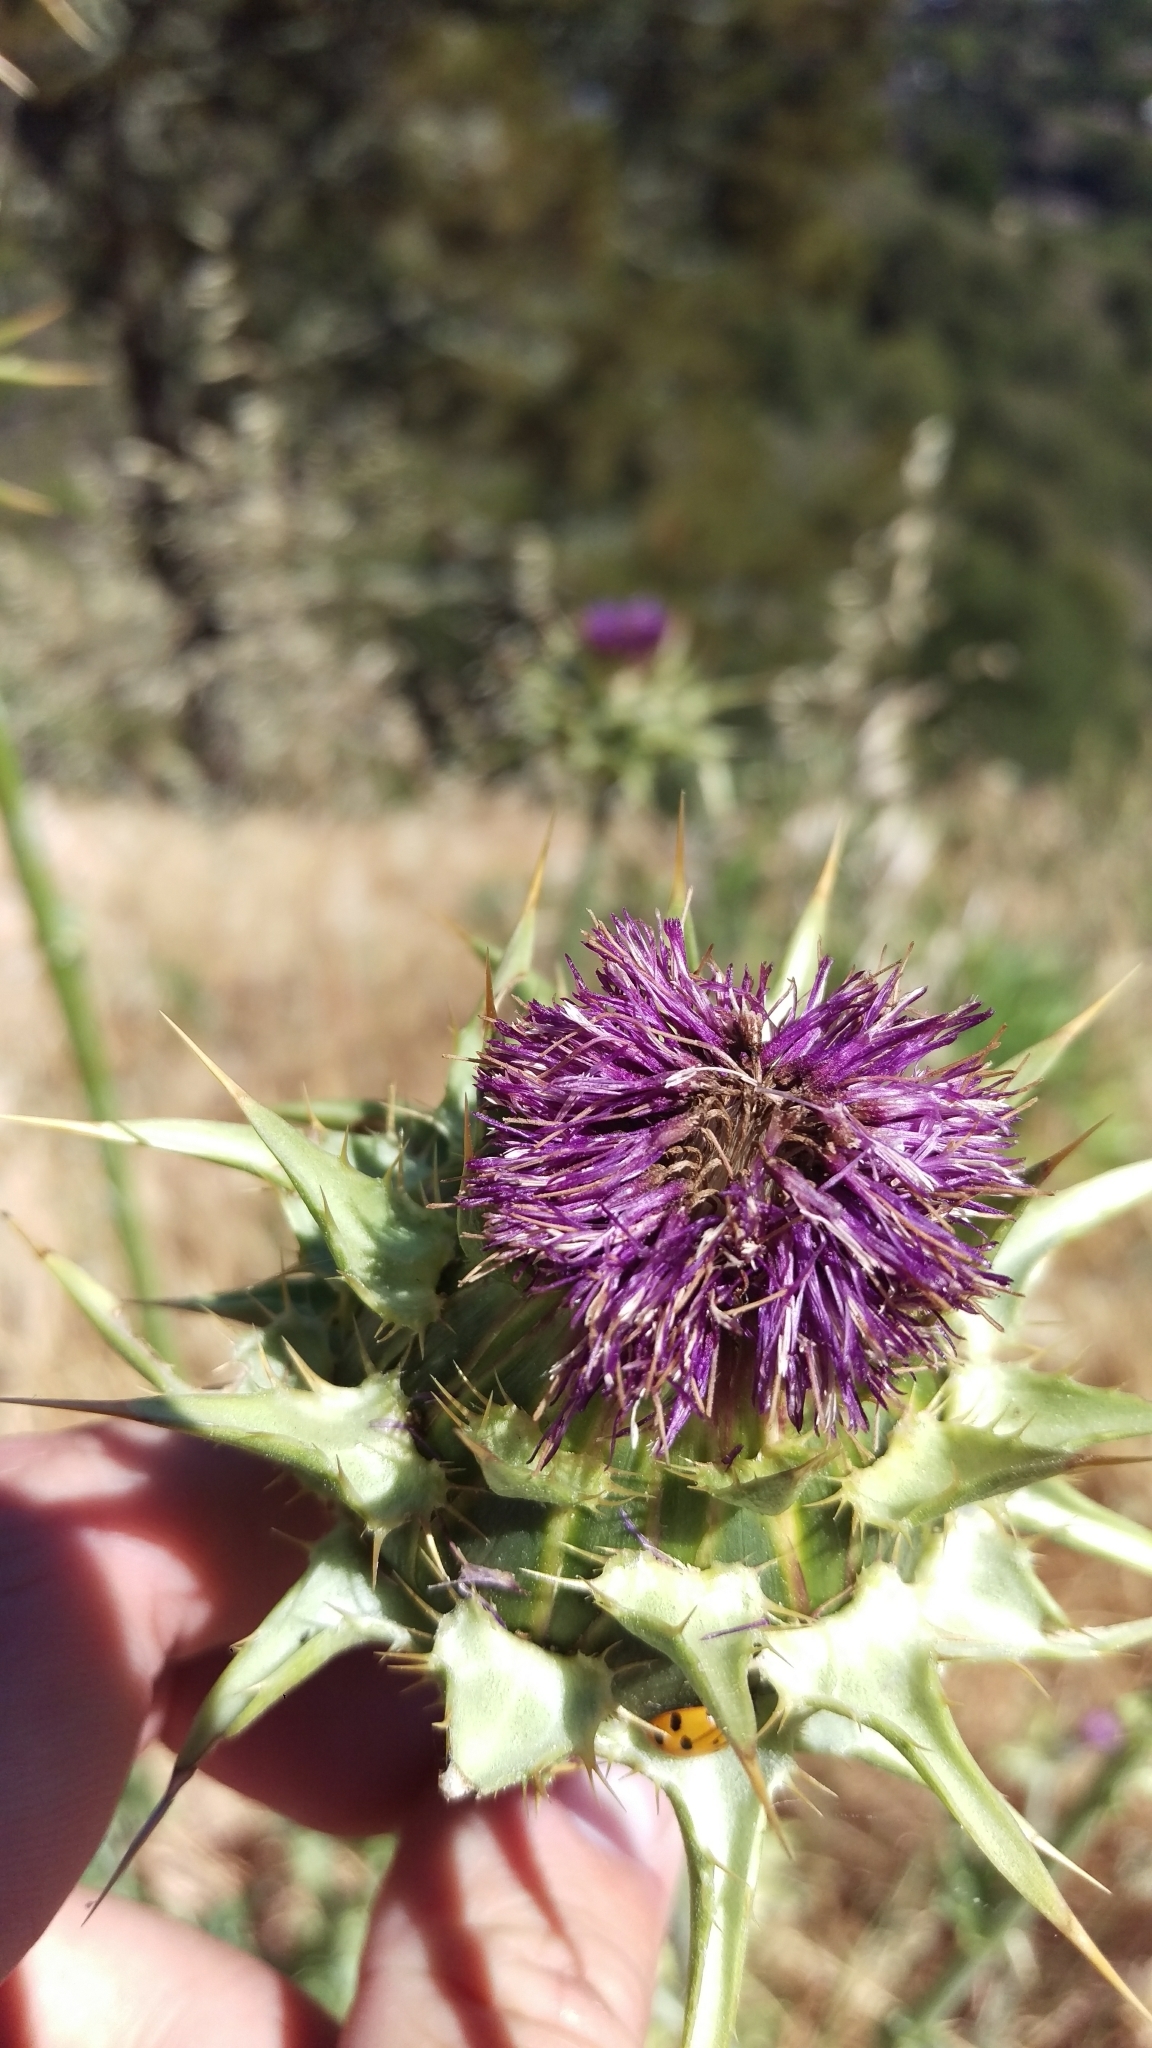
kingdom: Plantae
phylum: Tracheophyta
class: Magnoliopsida
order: Asterales
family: Asteraceae
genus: Silybum
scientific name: Silybum marianum
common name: Milk thistle
